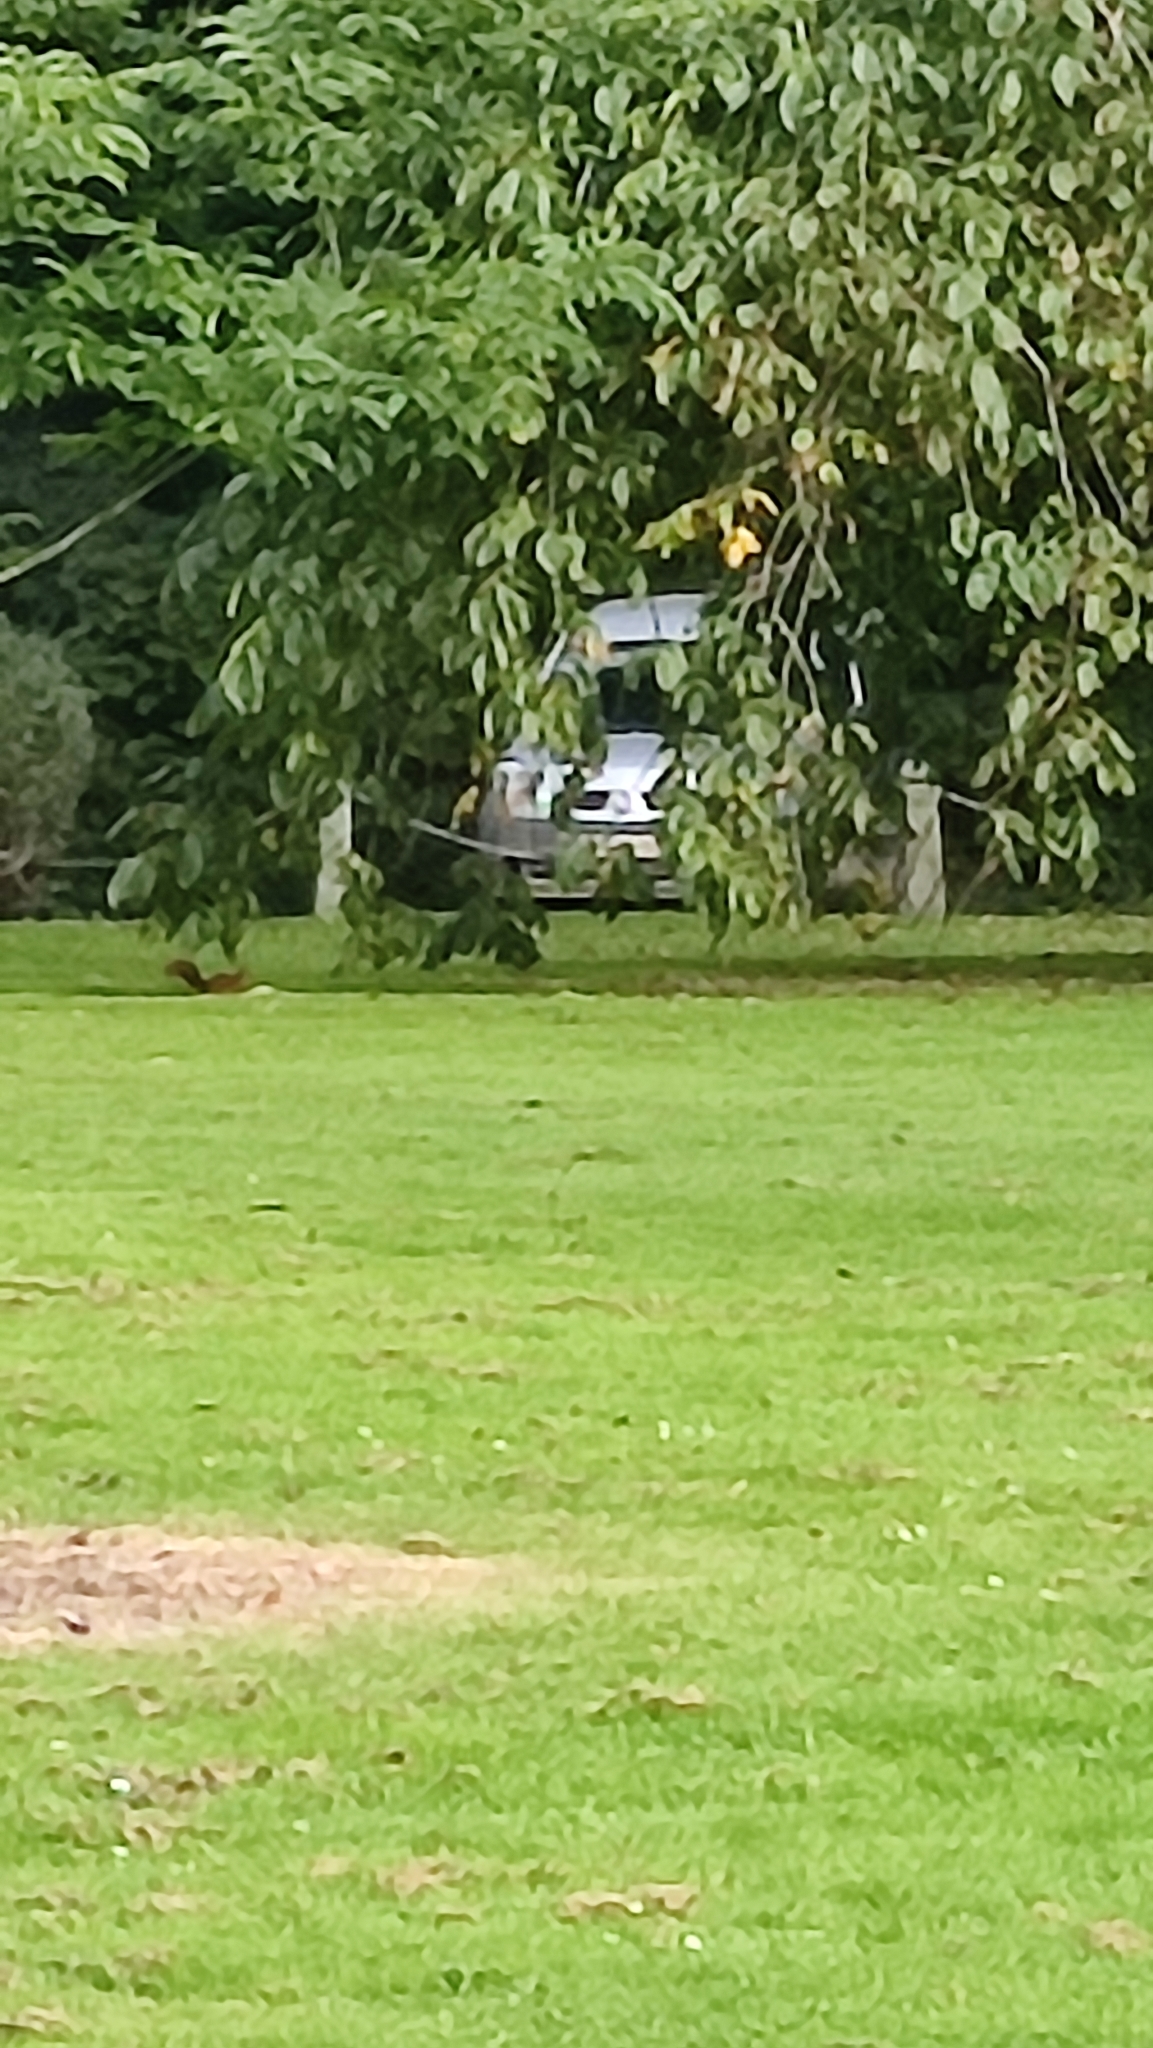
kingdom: Animalia
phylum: Chordata
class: Mammalia
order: Rodentia
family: Sciuridae
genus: Sciurus
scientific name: Sciurus vulgaris
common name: Eurasian red squirrel
